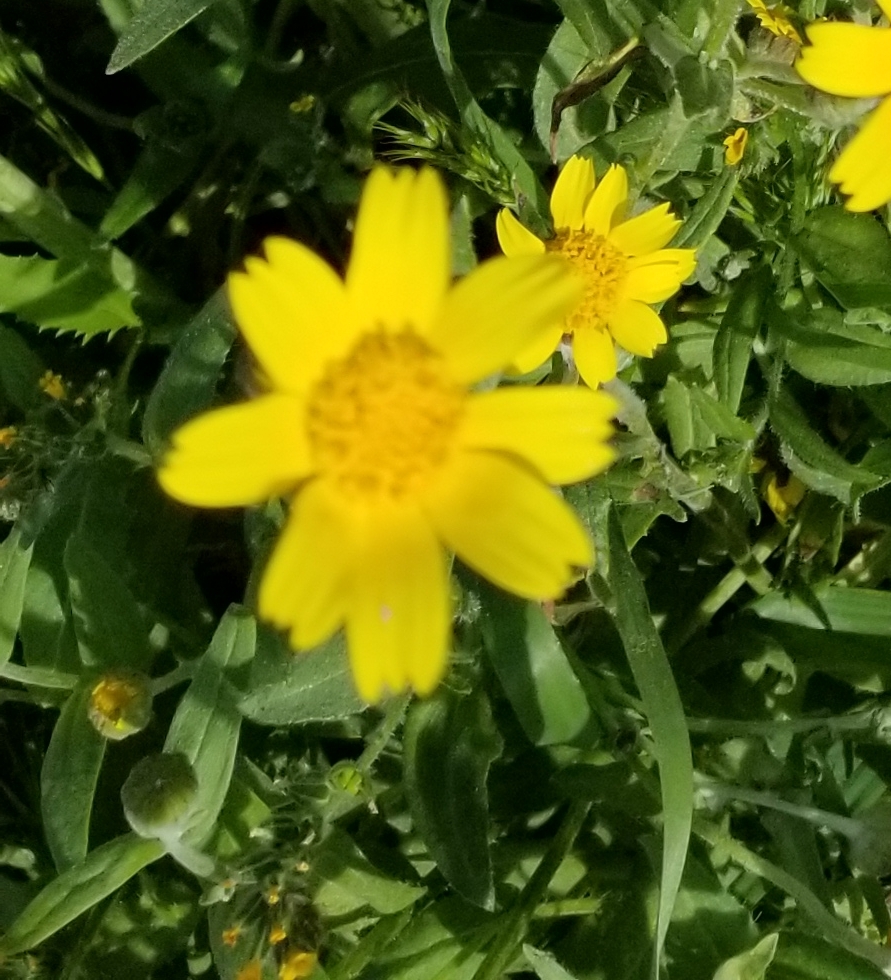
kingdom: Plantae
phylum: Tracheophyta
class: Magnoliopsida
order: Asterales
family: Asteraceae
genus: Monolopia
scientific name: Monolopia lanceolata
